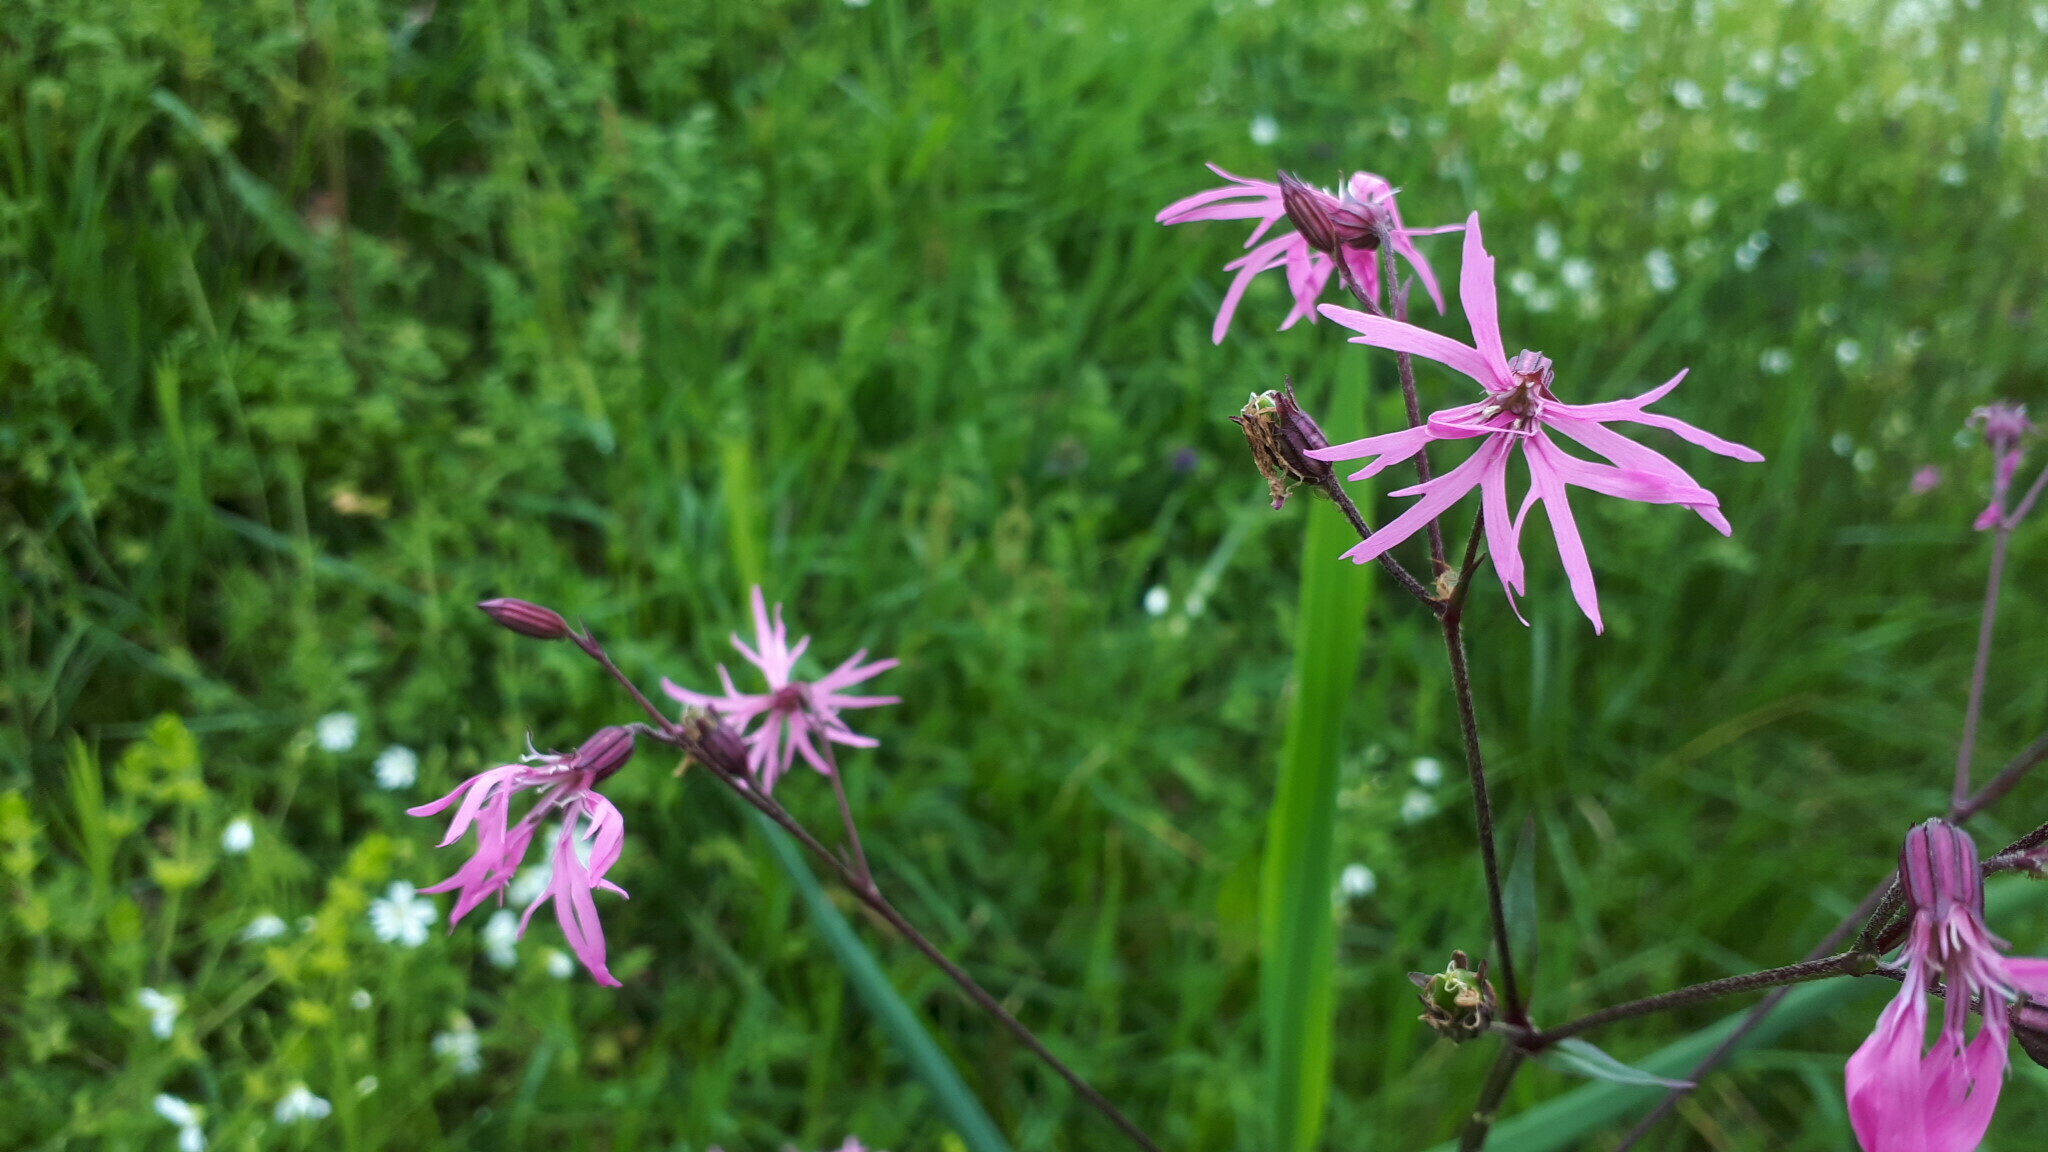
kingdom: Plantae
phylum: Tracheophyta
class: Magnoliopsida
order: Caryophyllales
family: Caryophyllaceae
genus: Silene
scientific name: Silene flos-cuculi
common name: Ragged-robin
